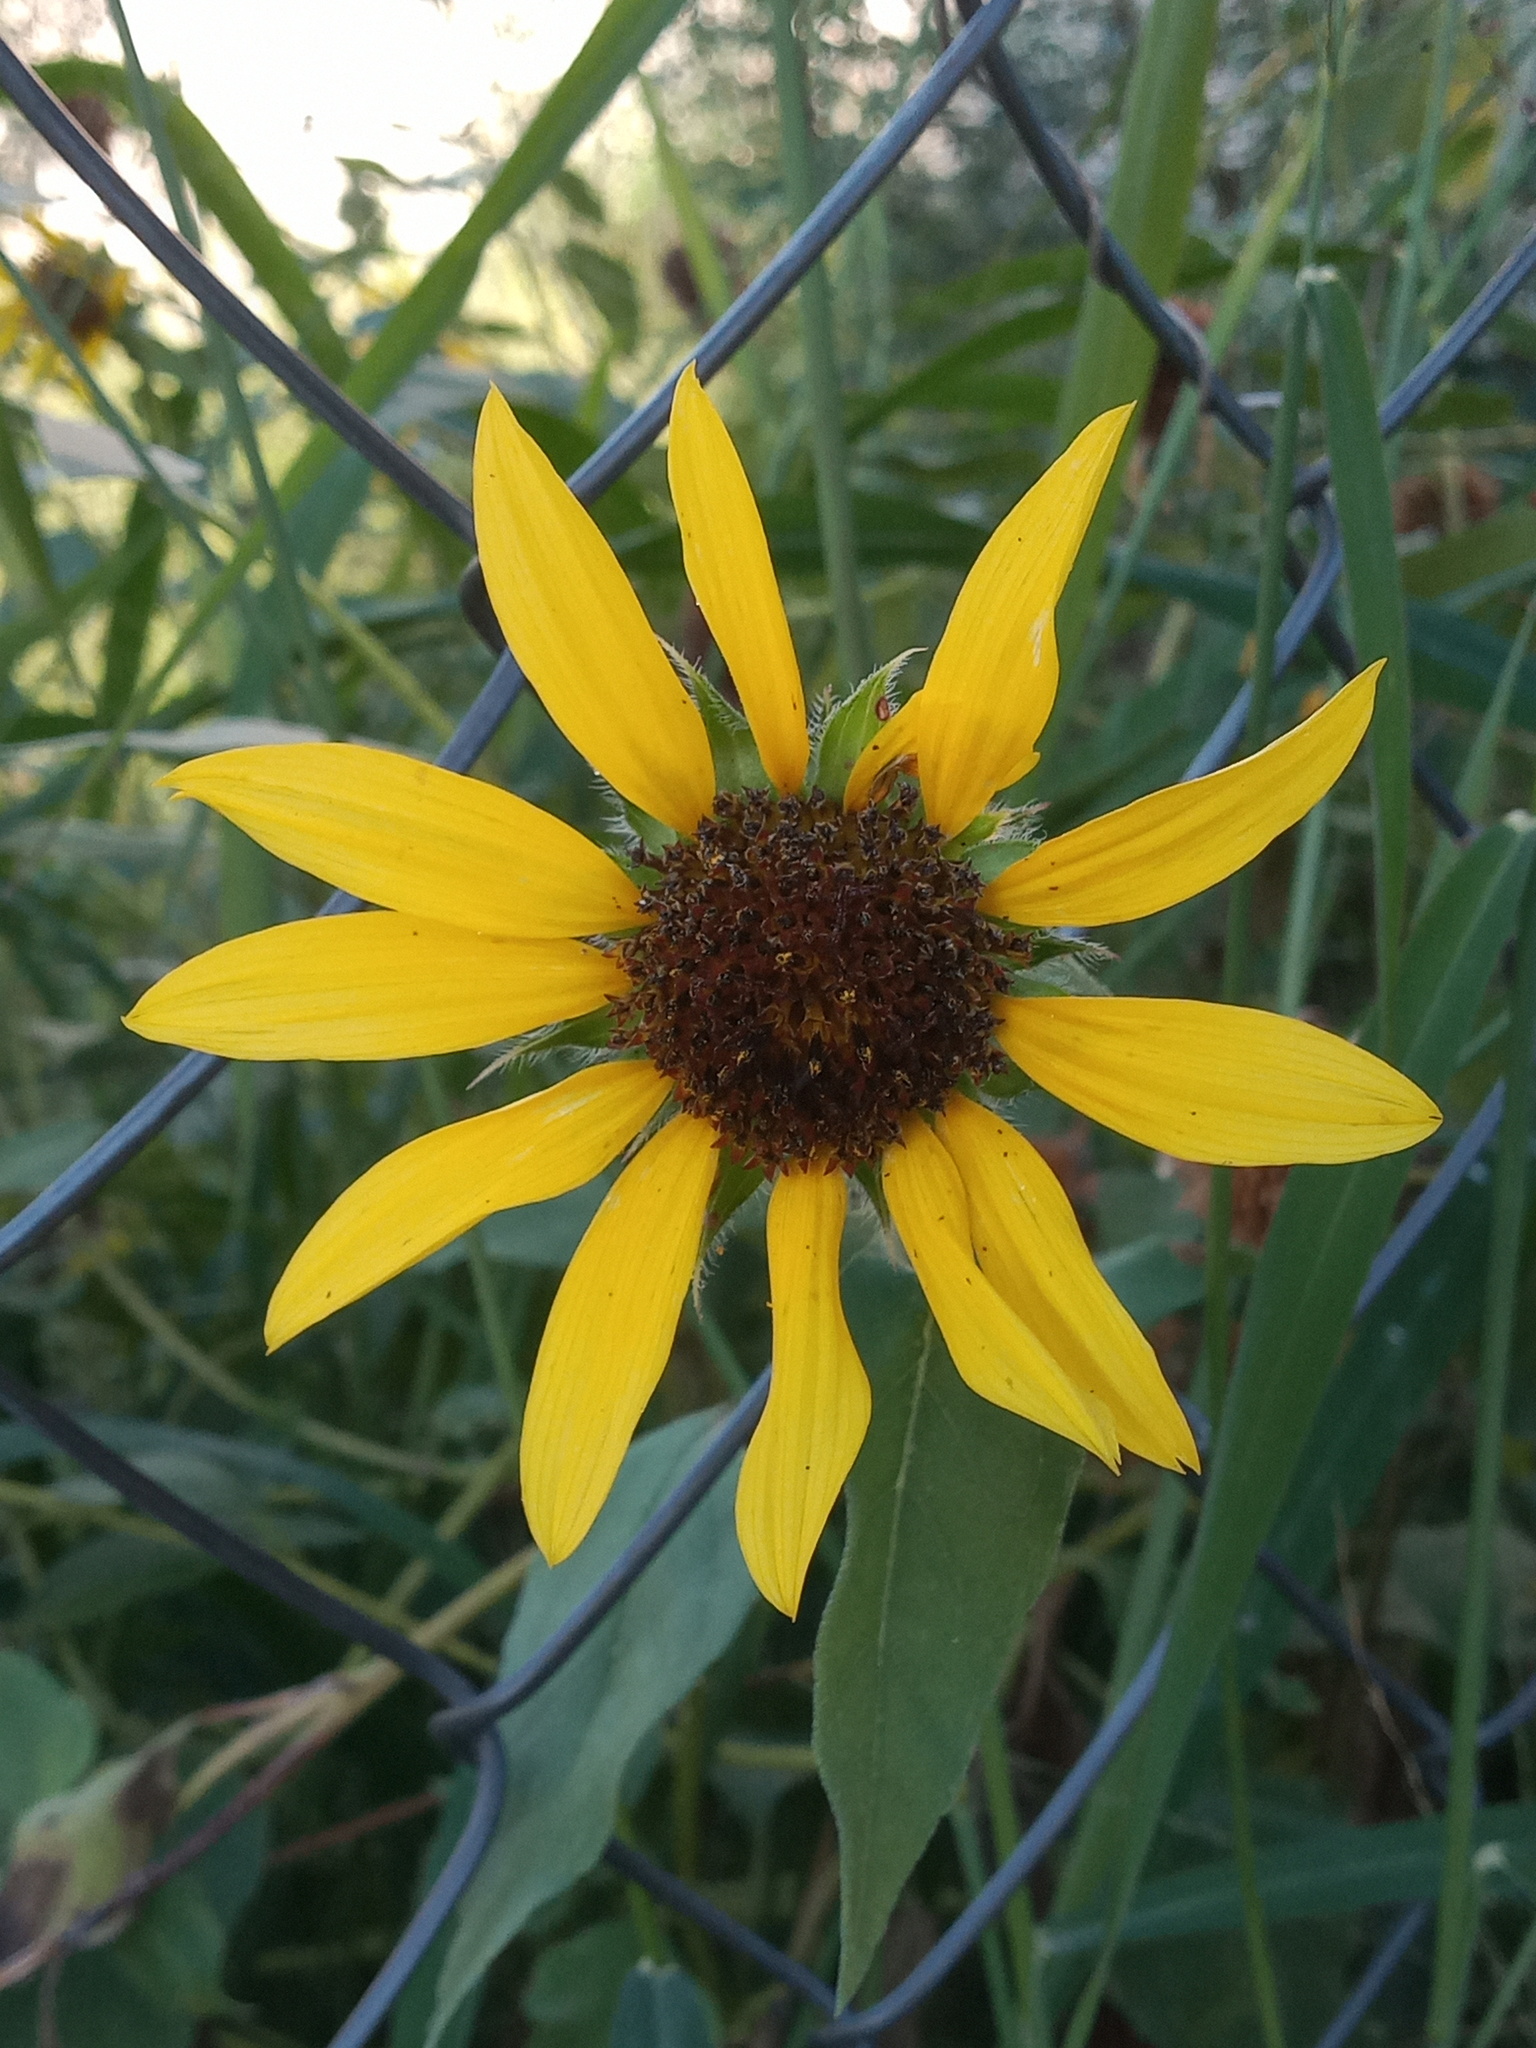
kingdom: Plantae
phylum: Tracheophyta
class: Magnoliopsida
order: Asterales
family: Asteraceae
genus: Helianthus
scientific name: Helianthus annuus
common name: Sunflower
